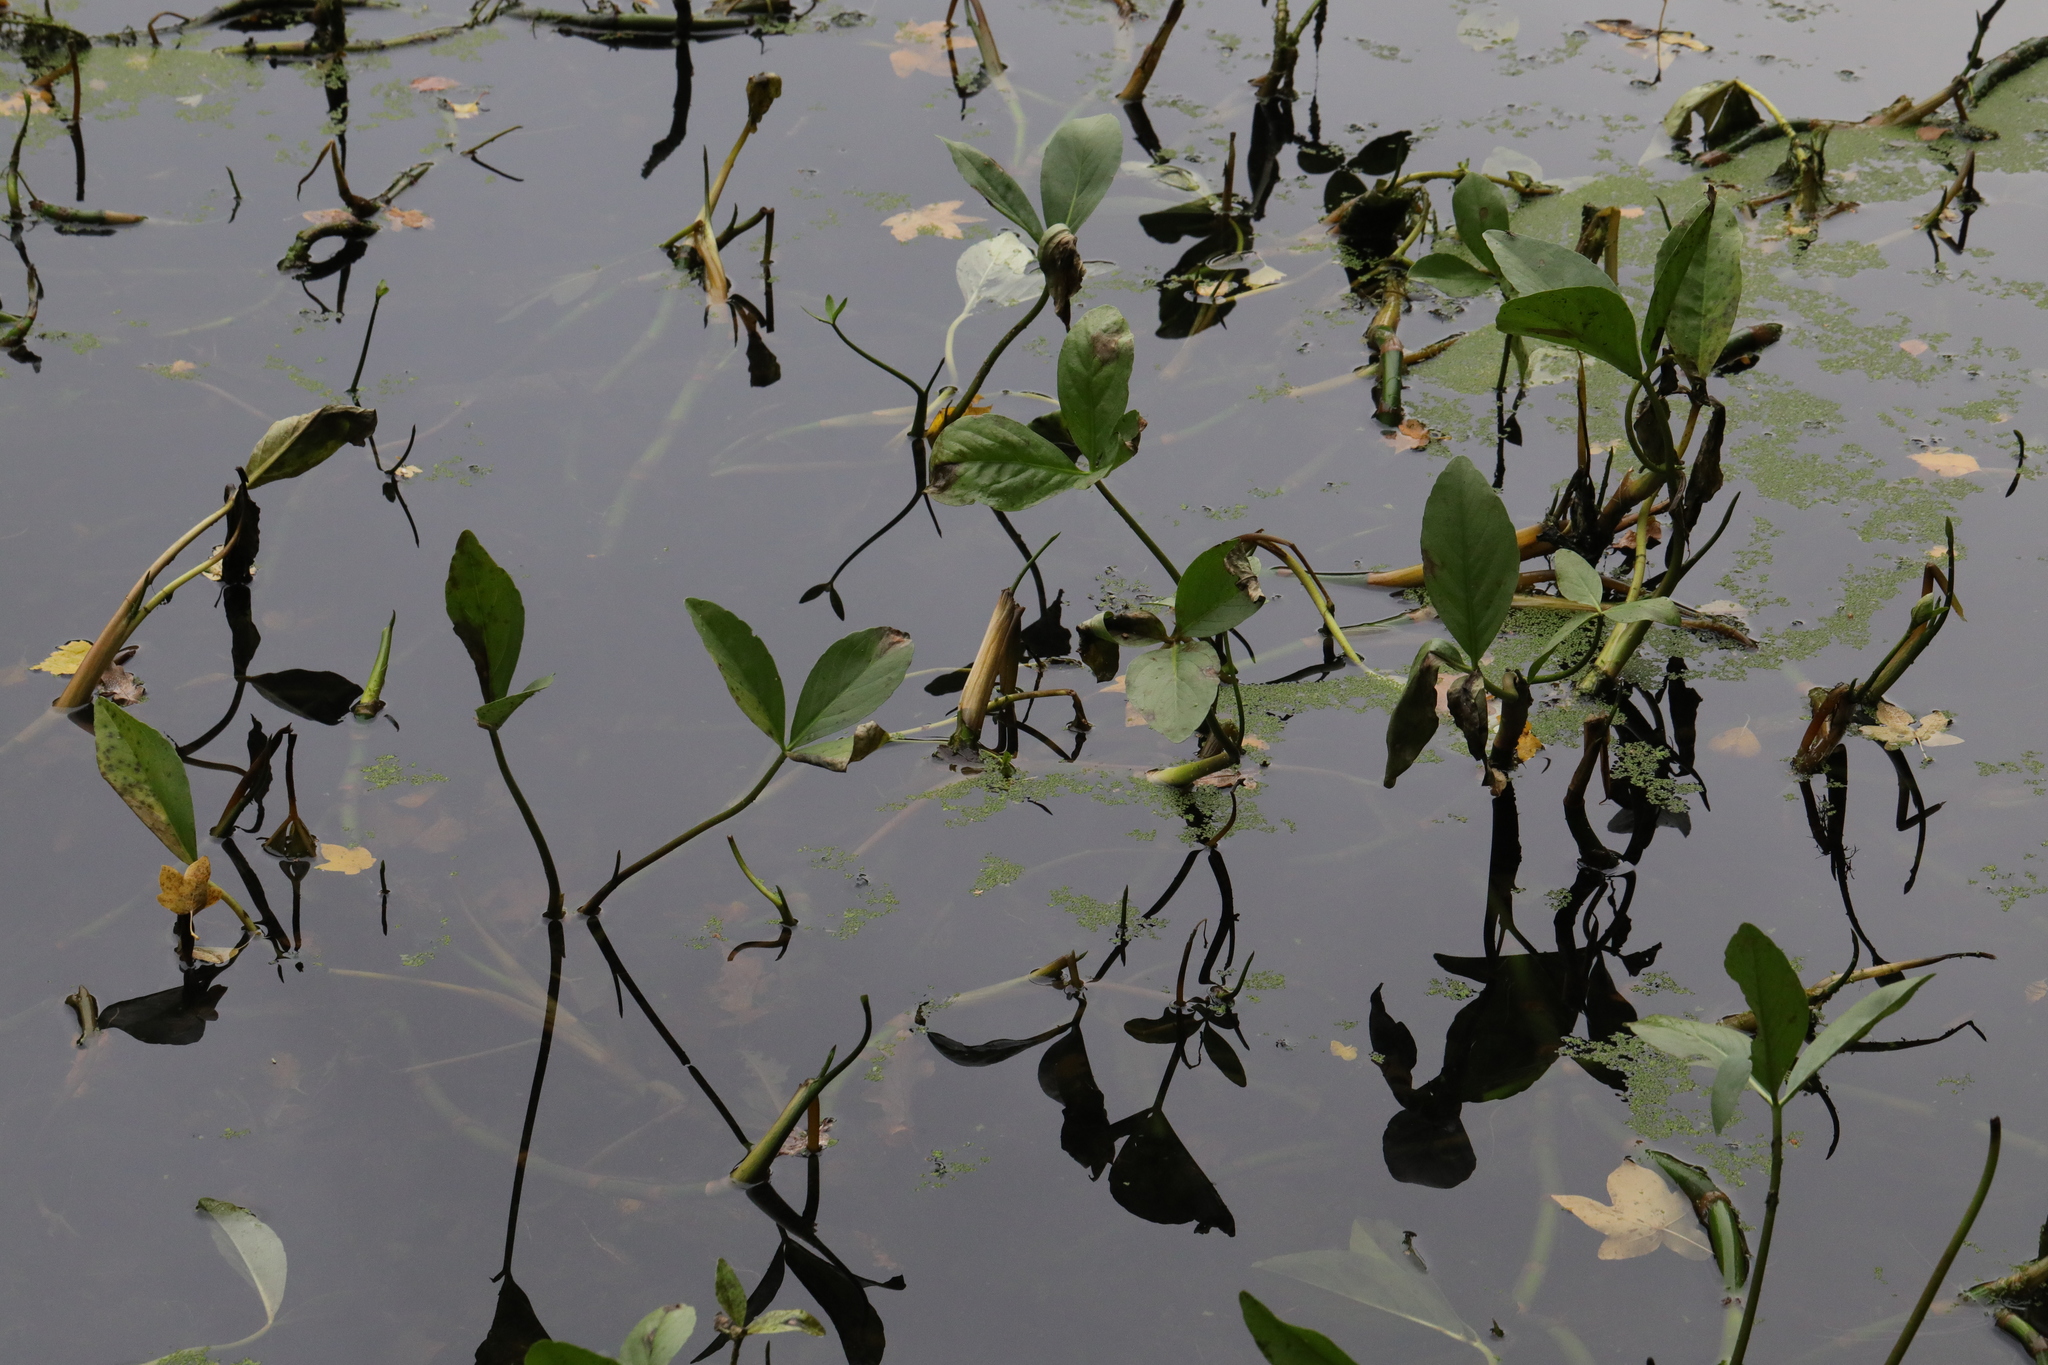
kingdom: Plantae
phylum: Tracheophyta
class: Magnoliopsida
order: Asterales
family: Menyanthaceae
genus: Menyanthes
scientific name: Menyanthes trifoliata
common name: Bogbean
